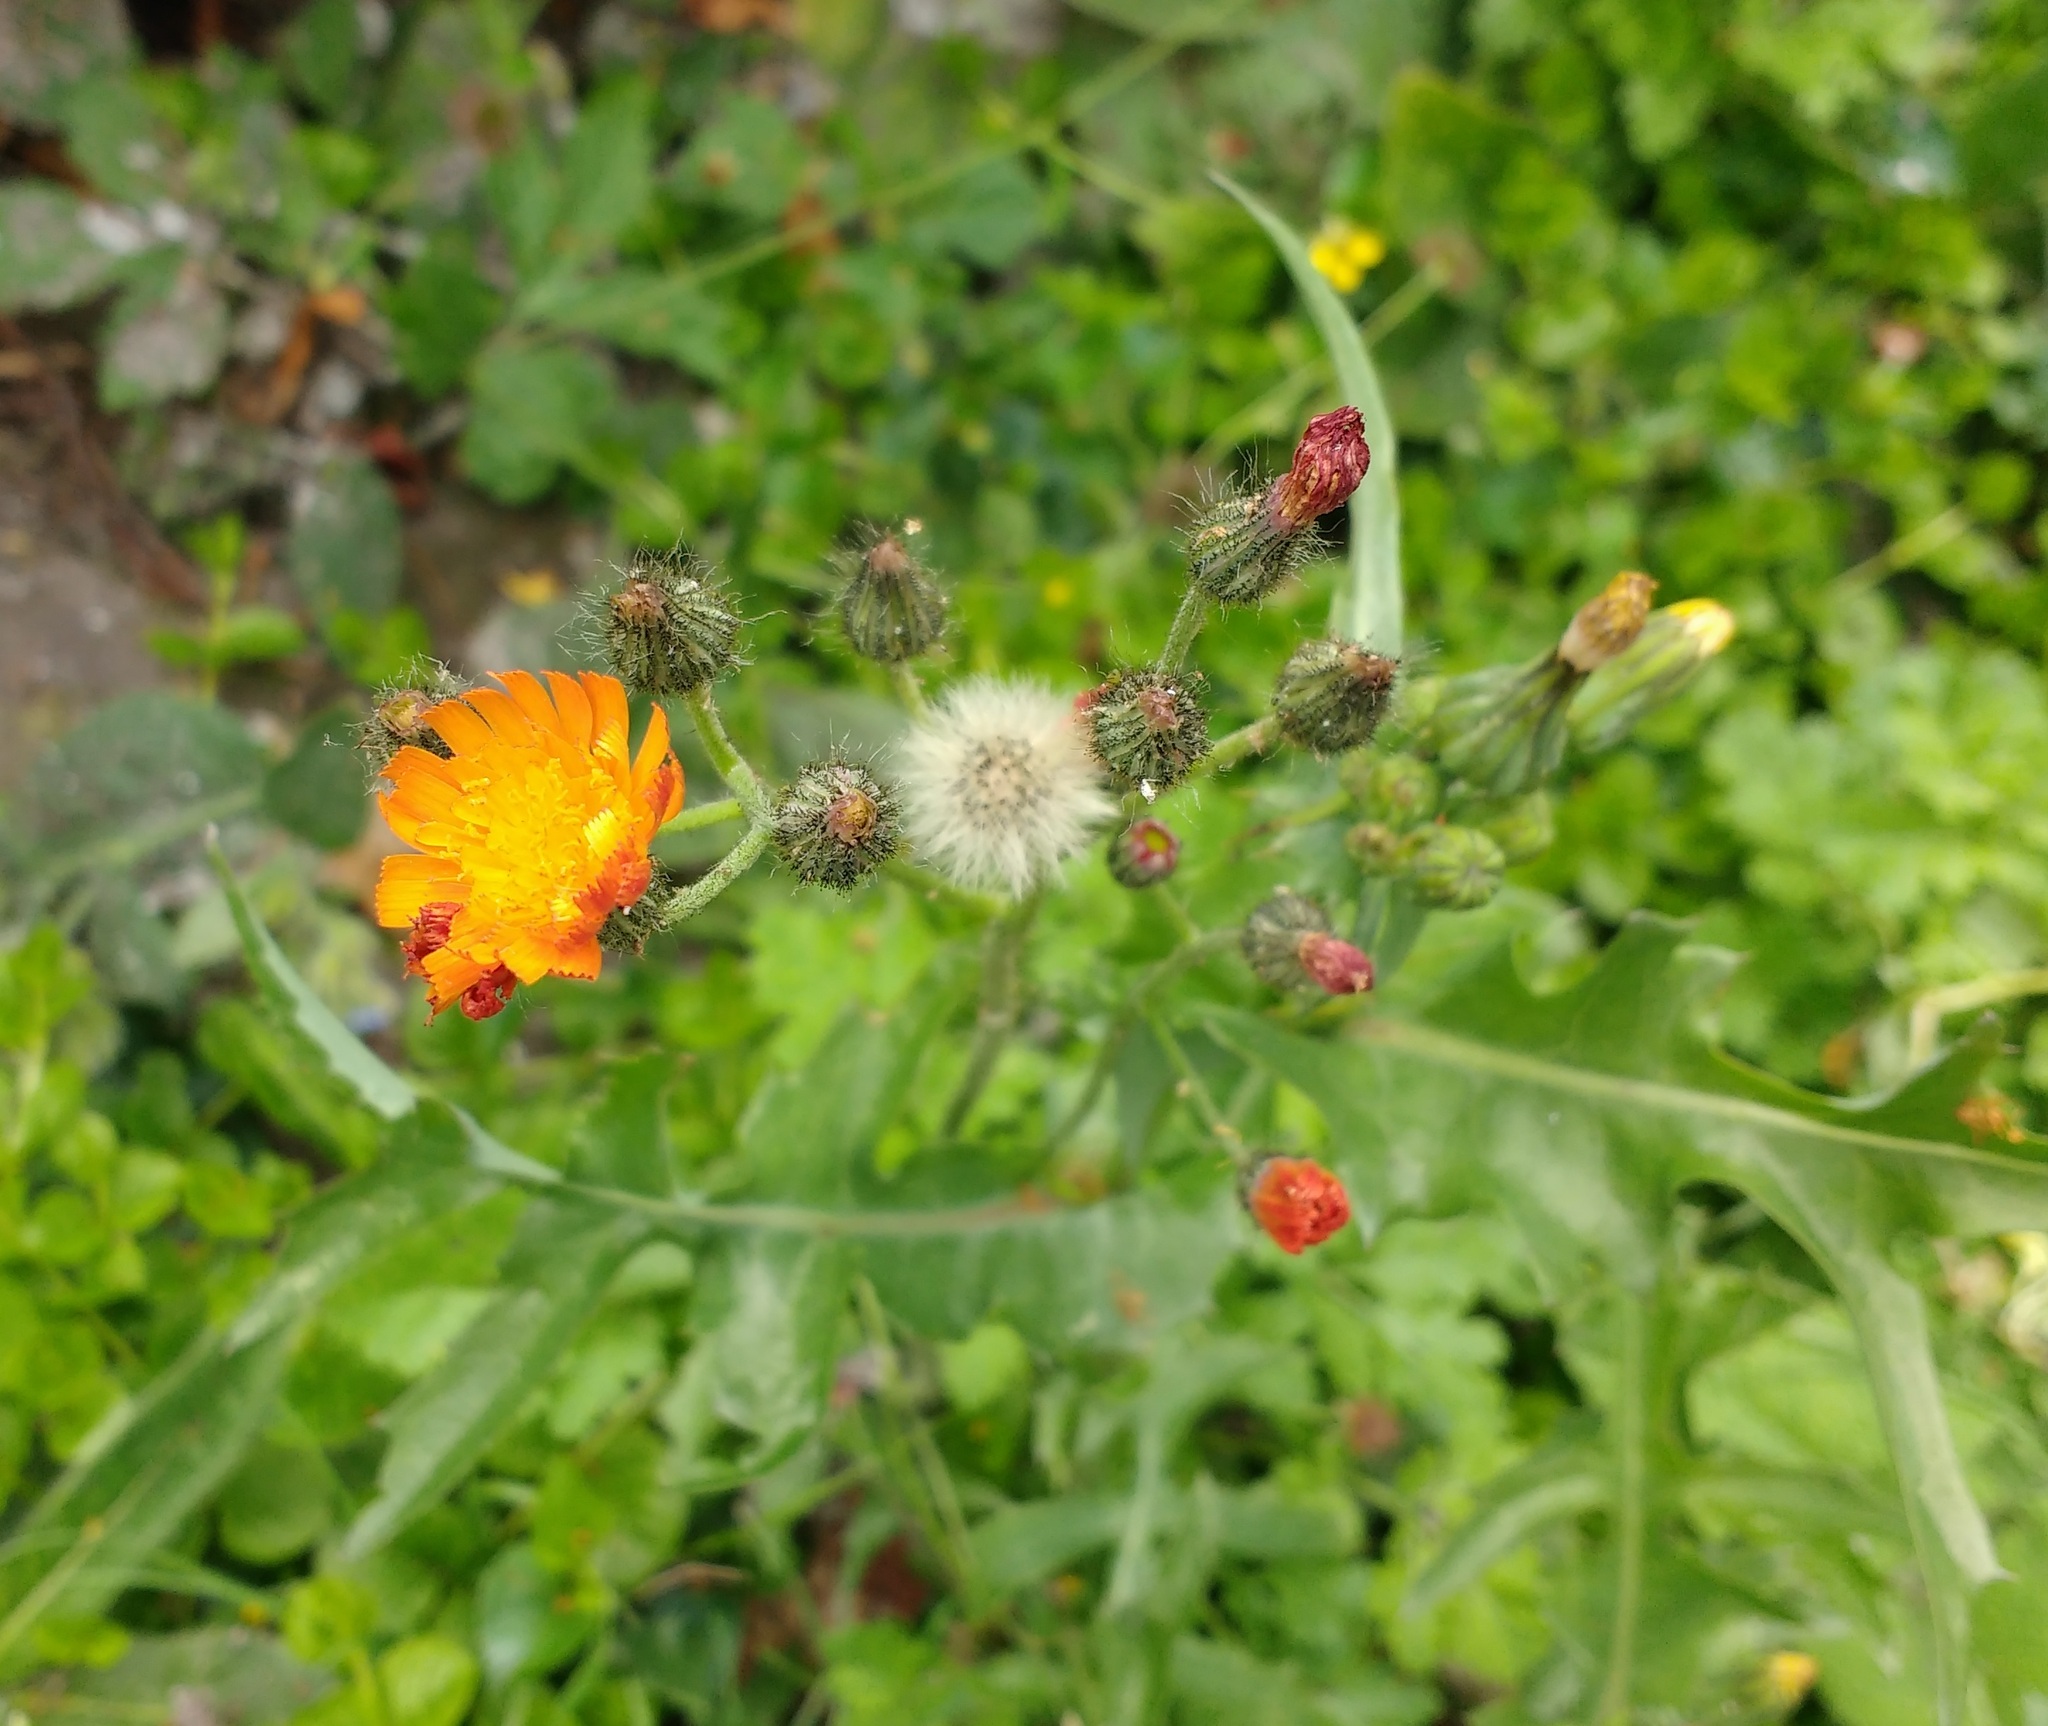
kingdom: Plantae
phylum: Tracheophyta
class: Magnoliopsida
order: Asterales
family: Asteraceae
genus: Pilosella
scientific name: Pilosella aurantiaca
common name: Fox-and-cubs
